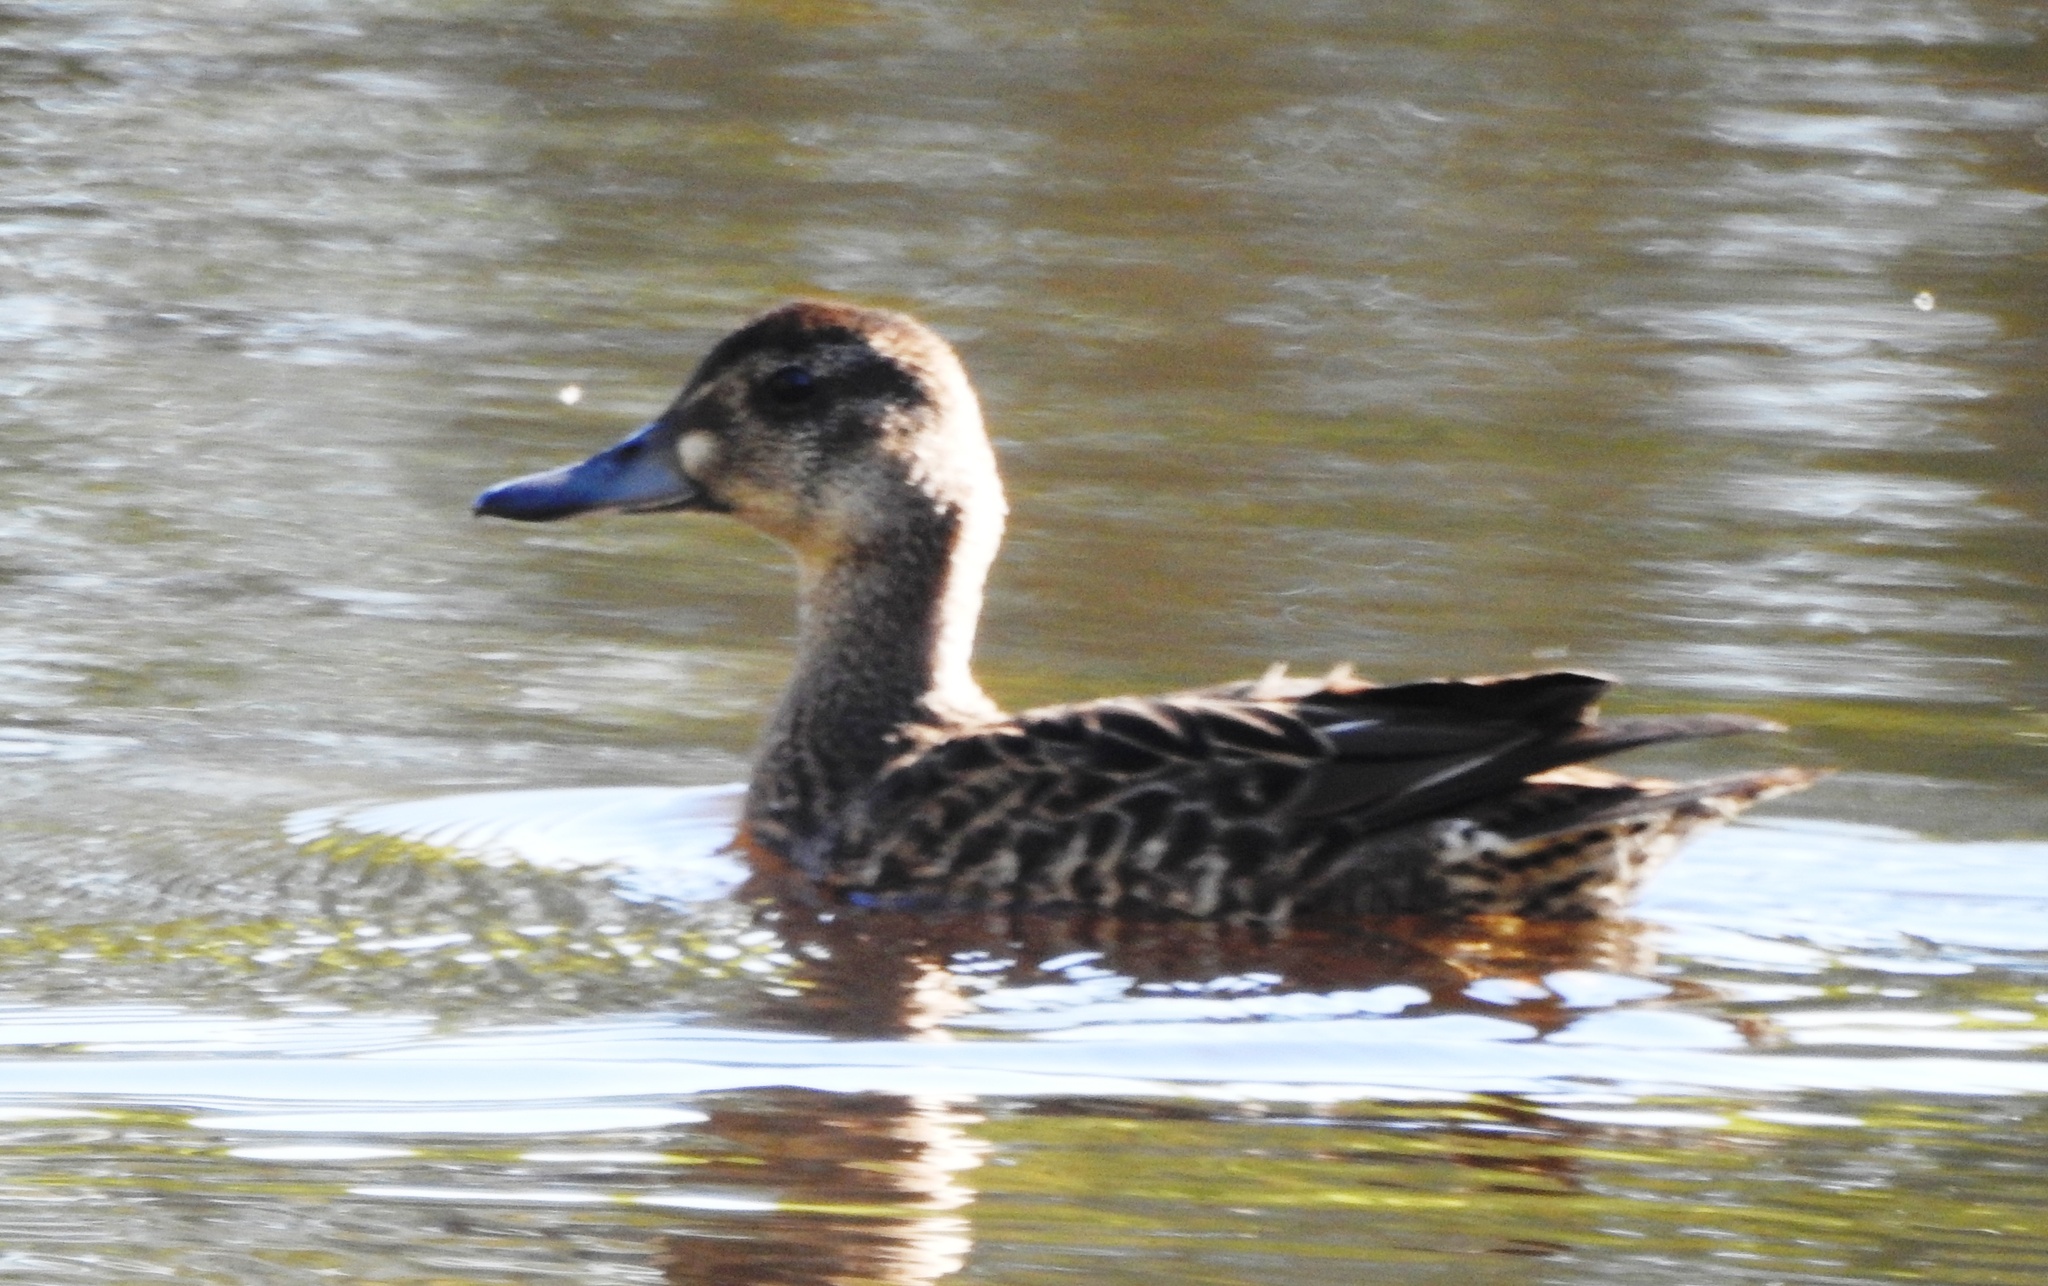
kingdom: Animalia
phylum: Chordata
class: Aves
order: Anseriformes
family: Anatidae
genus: Sibirionetta
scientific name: Sibirionetta formosa
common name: Baikal teal
